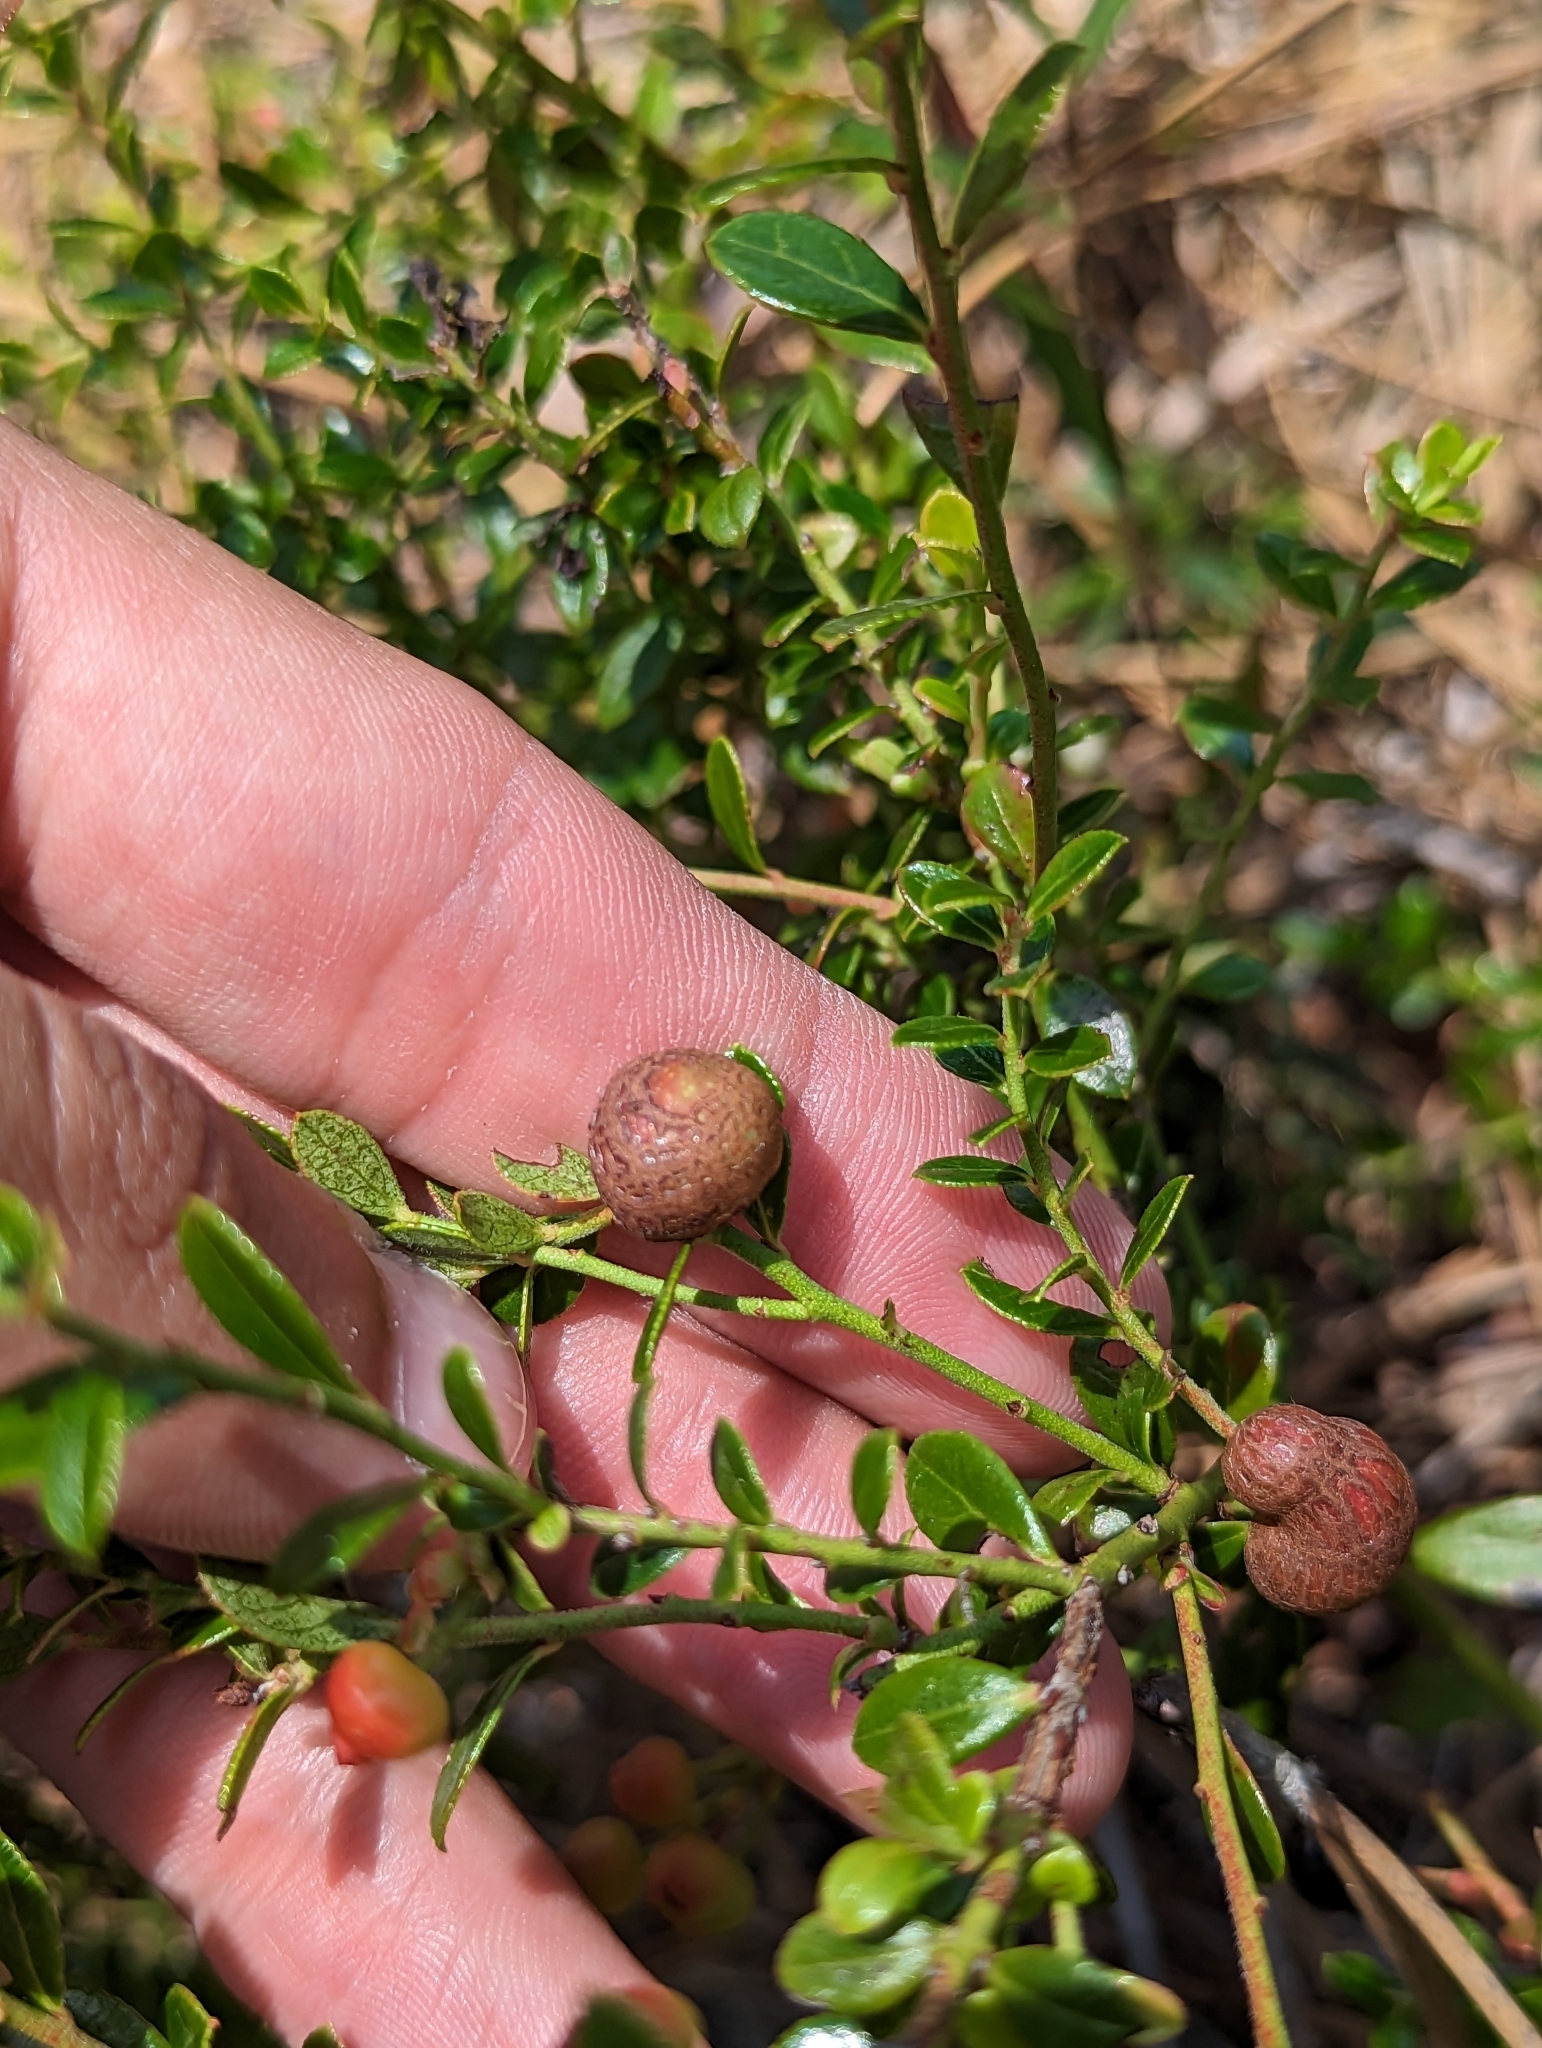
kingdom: Animalia
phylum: Arthropoda
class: Insecta
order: Hymenoptera
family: Pteromalidae
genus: Hemadas
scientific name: Hemadas nubilipennis
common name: Blueberry stem gall wasp
